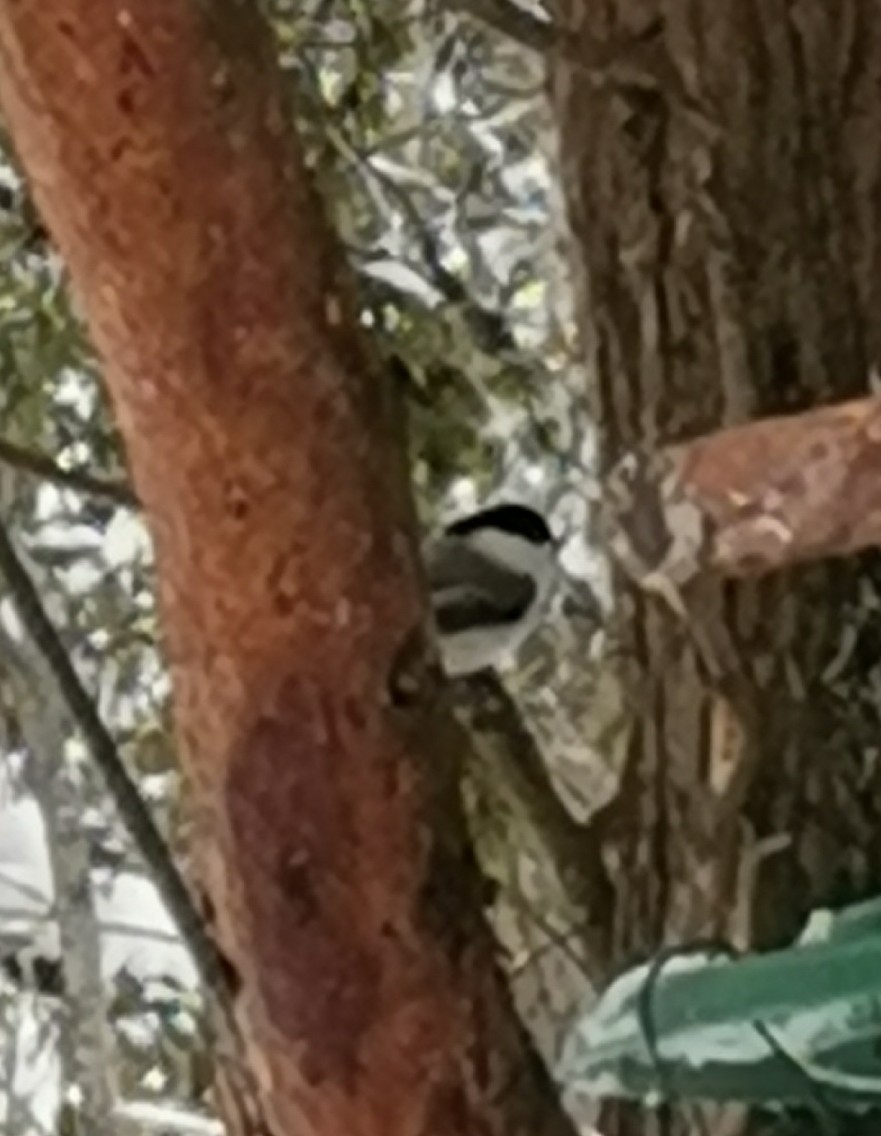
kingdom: Animalia
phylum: Chordata
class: Aves
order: Passeriformes
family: Paridae
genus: Poecile
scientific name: Poecile montanus
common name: Willow tit
